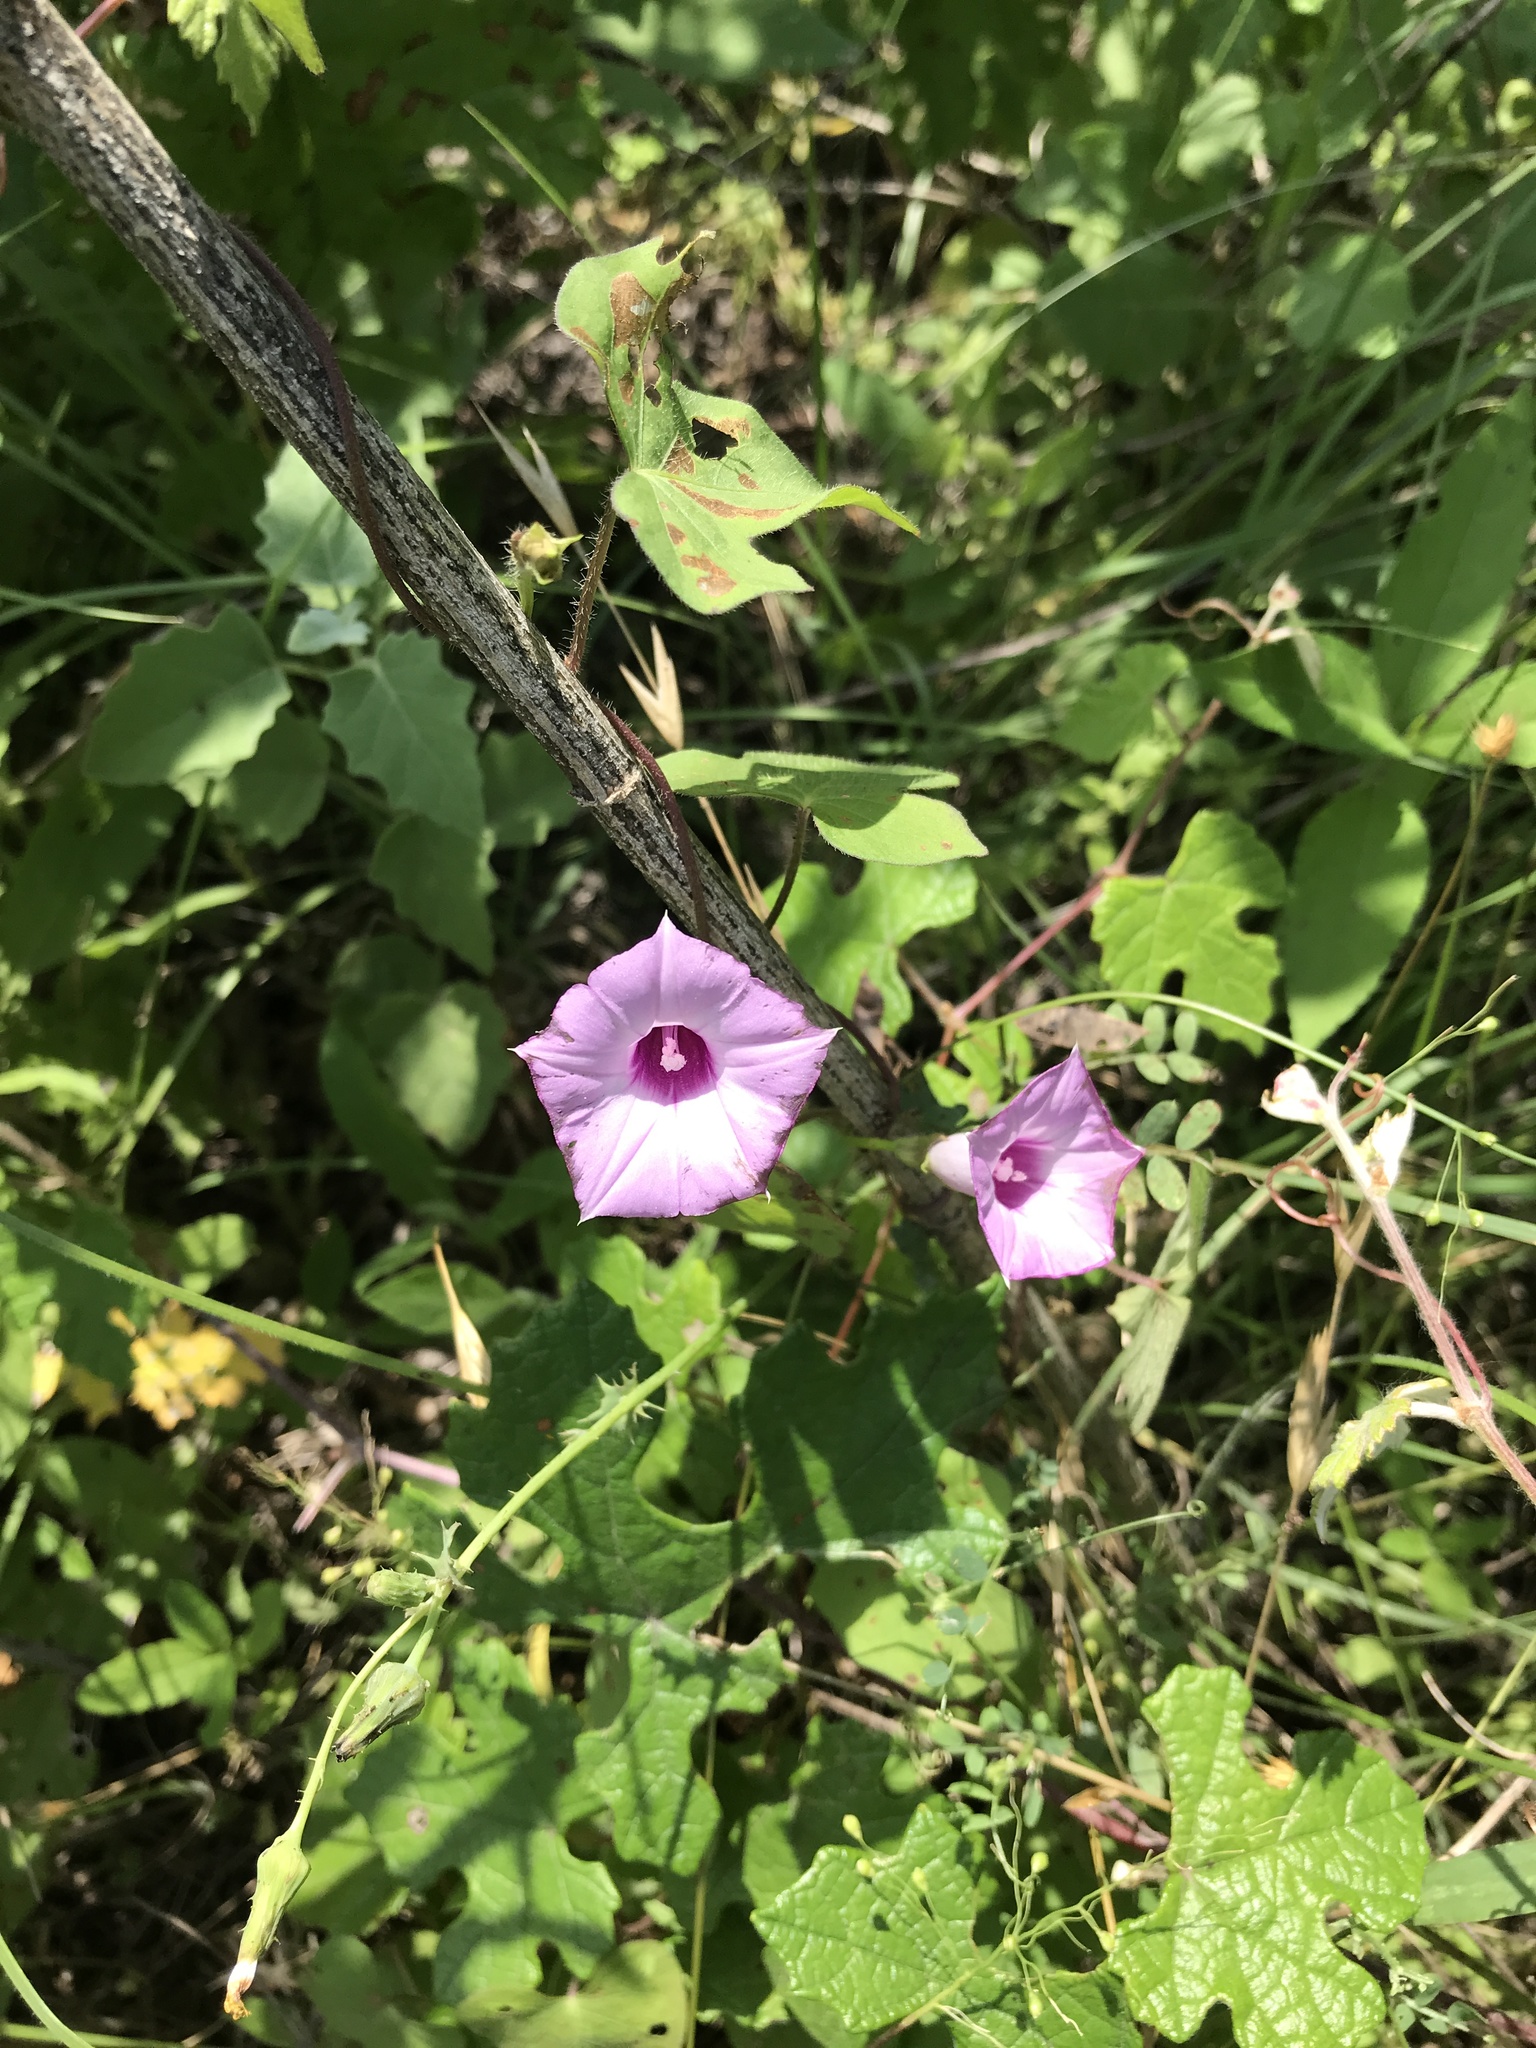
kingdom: Plantae
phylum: Tracheophyta
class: Magnoliopsida
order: Solanales
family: Convolvulaceae
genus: Ipomoea
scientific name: Ipomoea cordatotriloba
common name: Cotton morning glory
